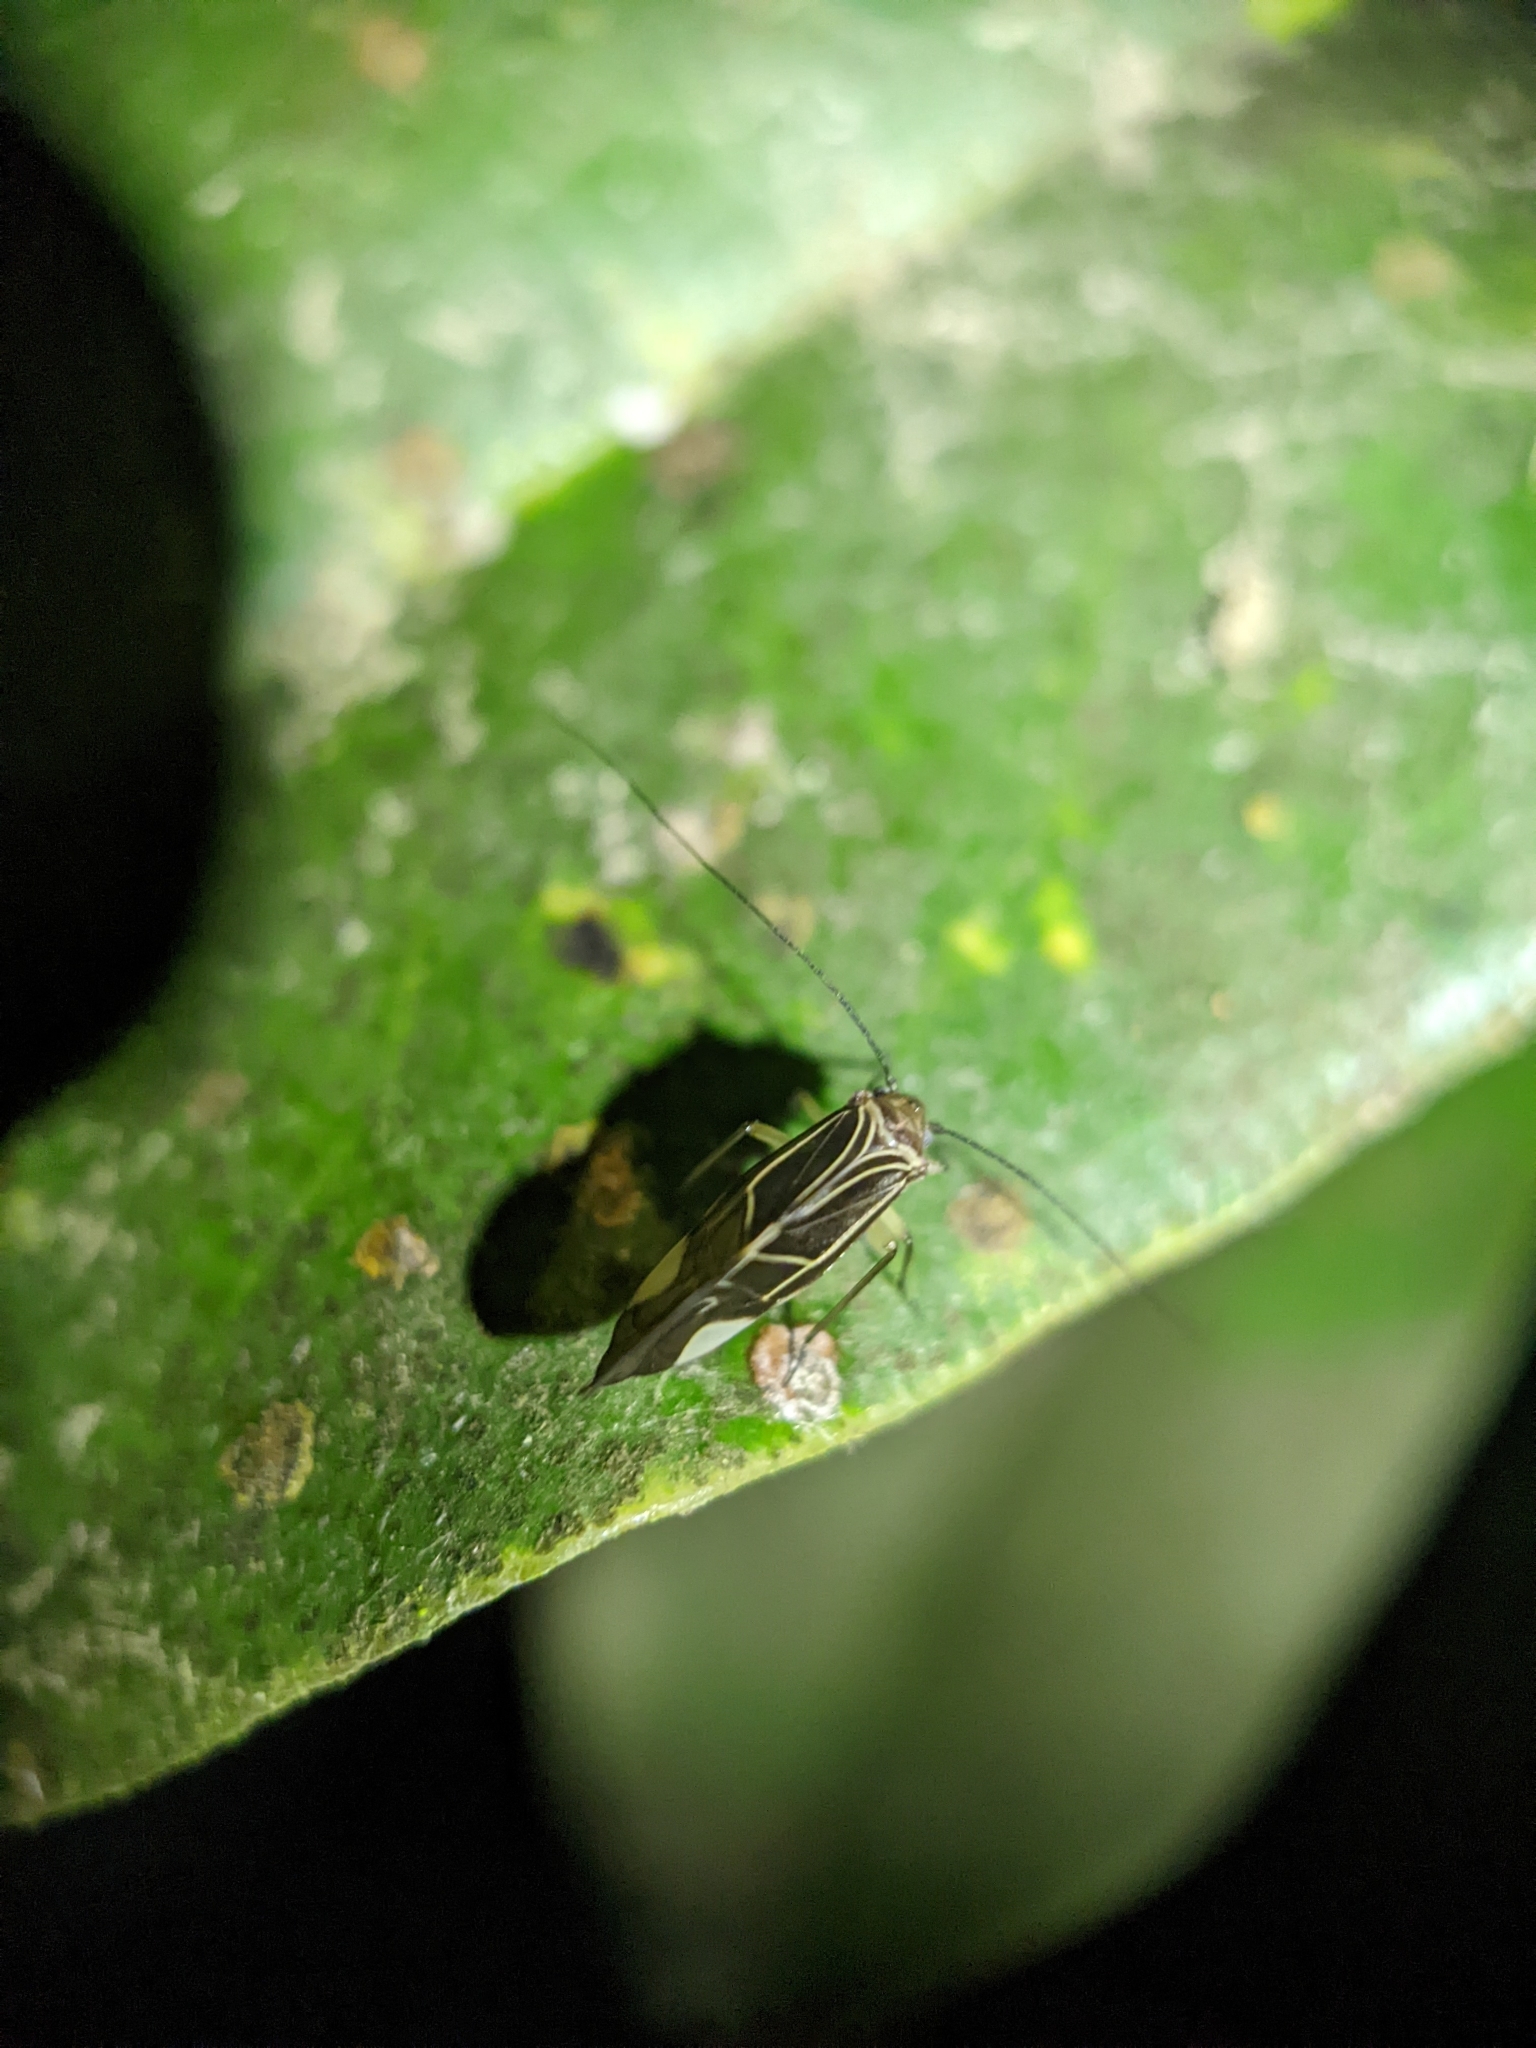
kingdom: Animalia
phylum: Arthropoda
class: Insecta
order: Psocodea
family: Psocidae
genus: Cerastipsocus
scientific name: Cerastipsocus venosus
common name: Tree cattle
